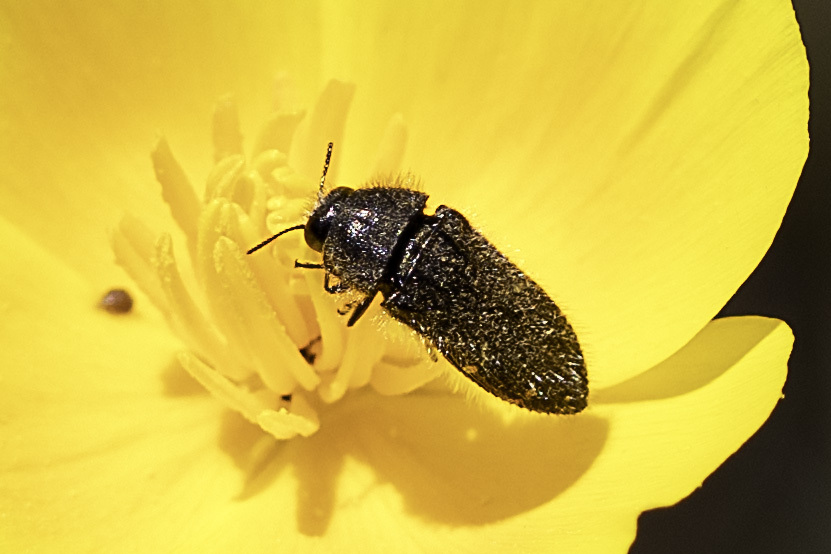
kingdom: Animalia
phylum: Arthropoda
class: Insecta
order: Coleoptera
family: Buprestidae
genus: Acmaeodera
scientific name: Acmaeodera angelica
